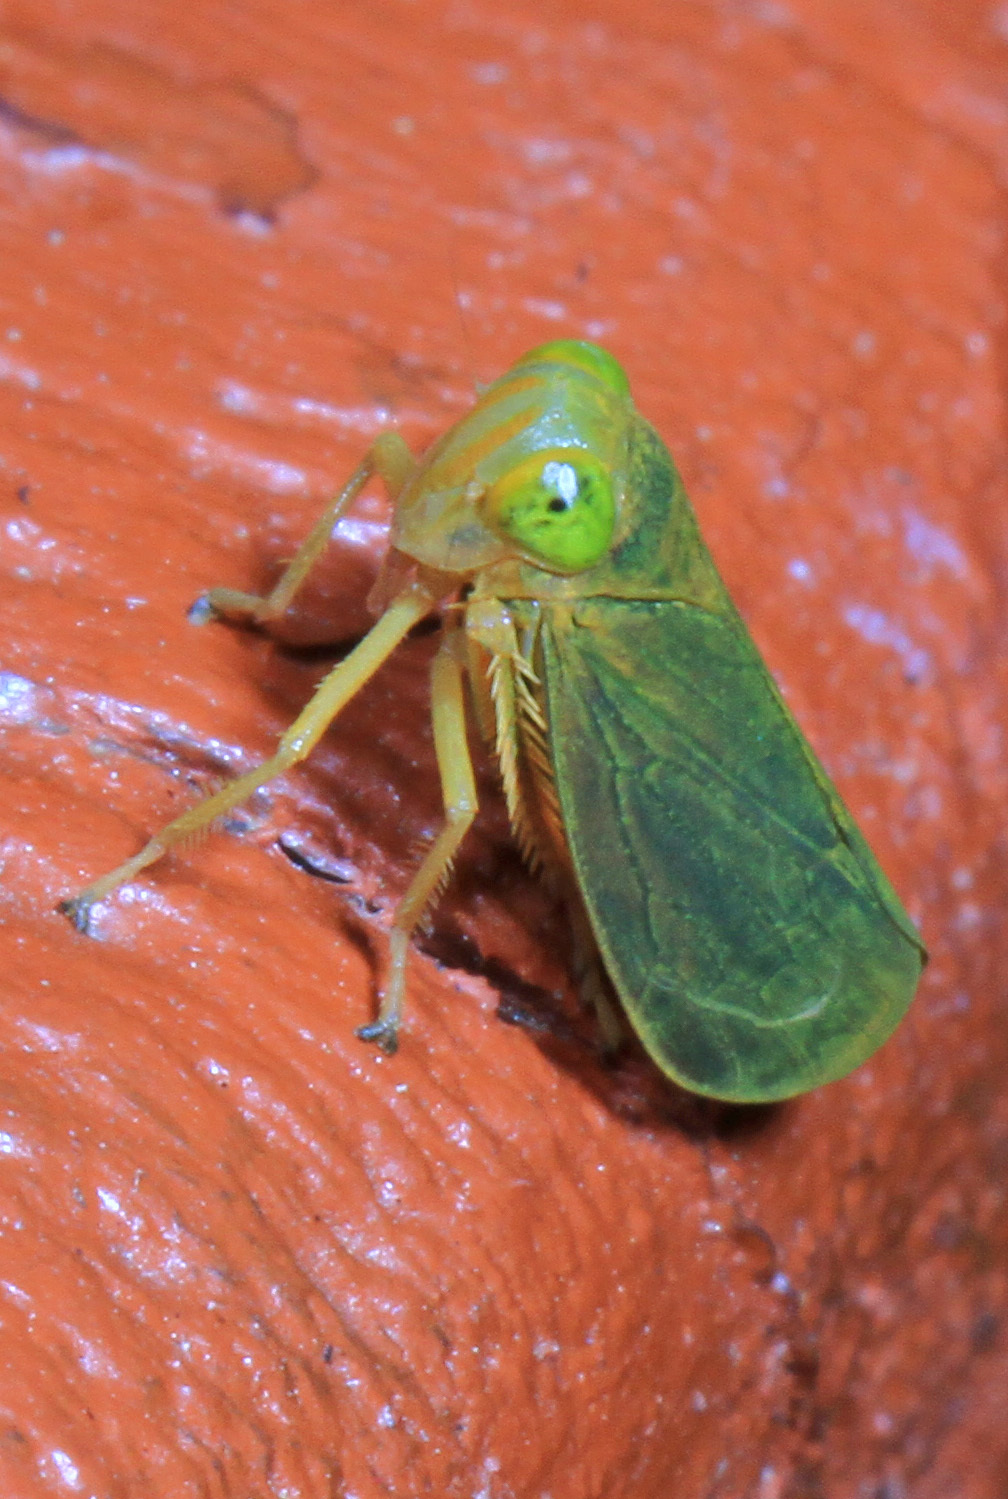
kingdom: Animalia
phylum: Arthropoda
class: Insecta
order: Hemiptera
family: Cicadellidae
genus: Jikradia
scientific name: Jikradia olitoria
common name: Coppery leafhopper
